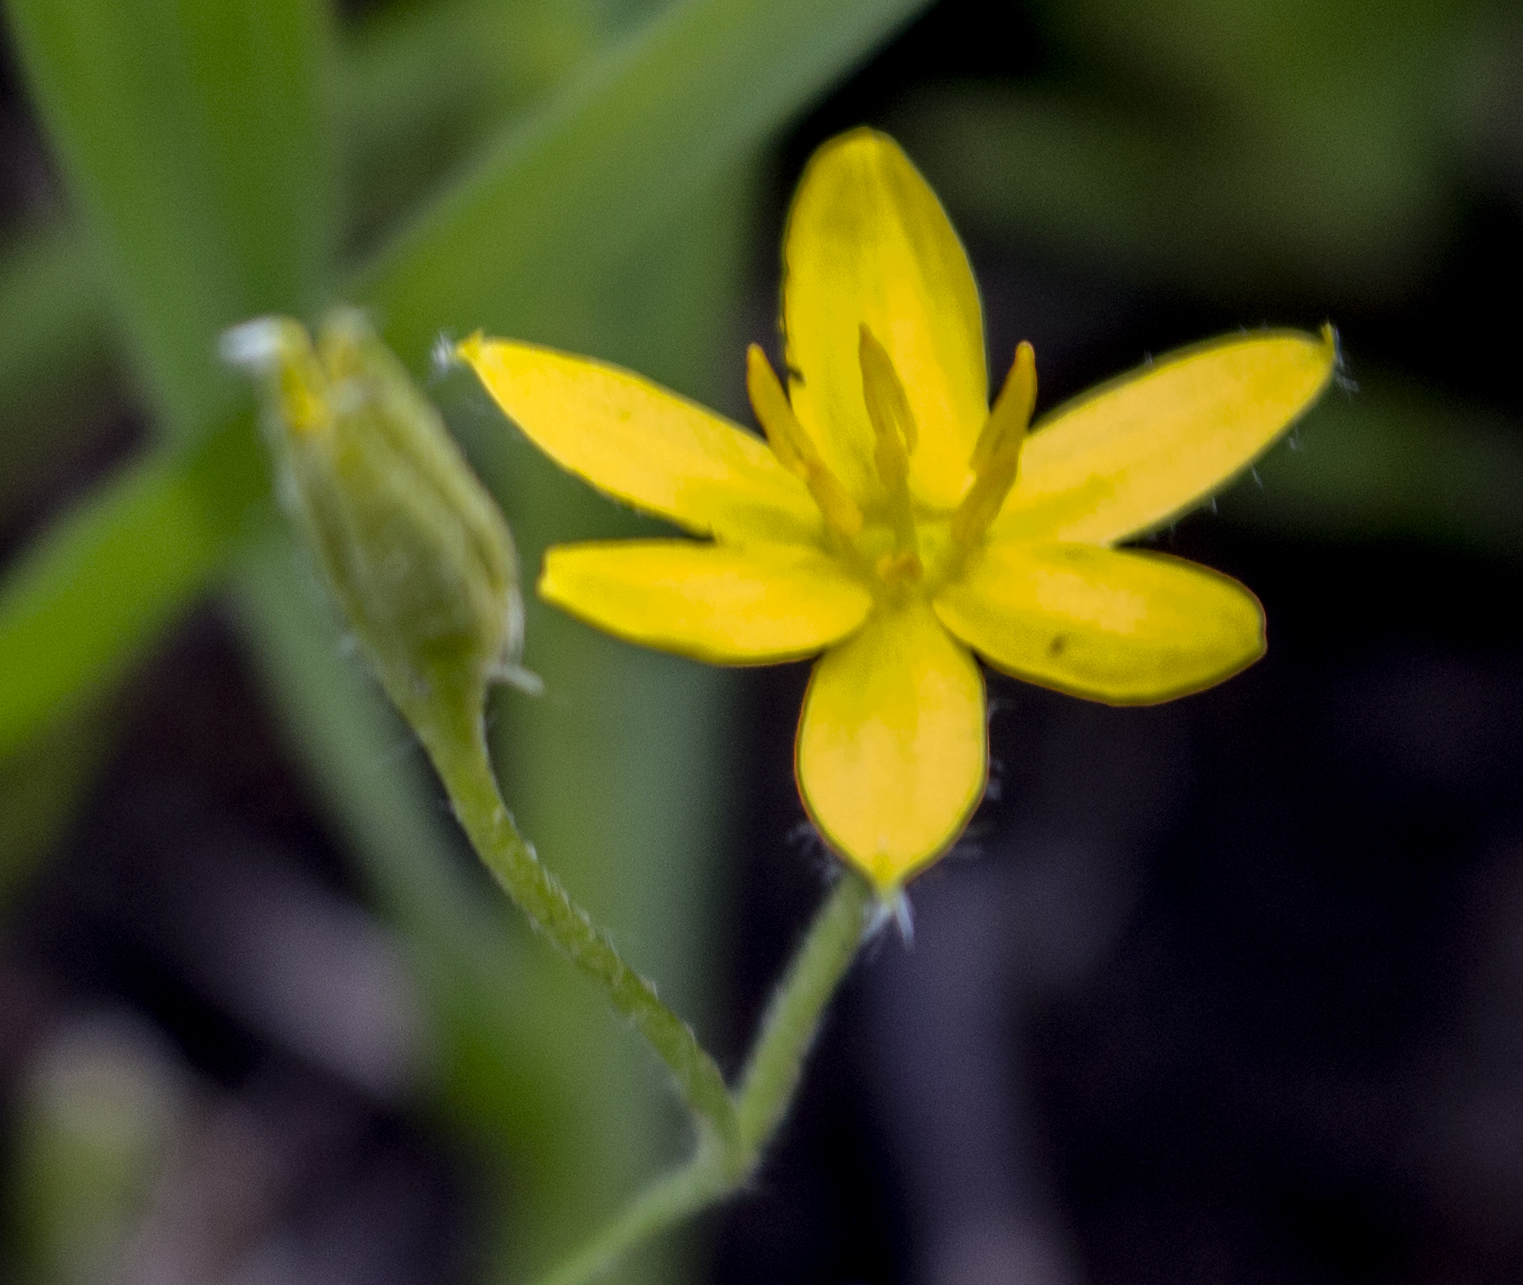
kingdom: Plantae
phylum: Tracheophyta
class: Liliopsida
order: Asparagales
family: Hypoxidaceae
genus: Hypoxis
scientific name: Hypoxis hirsuta
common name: Common goldstar
